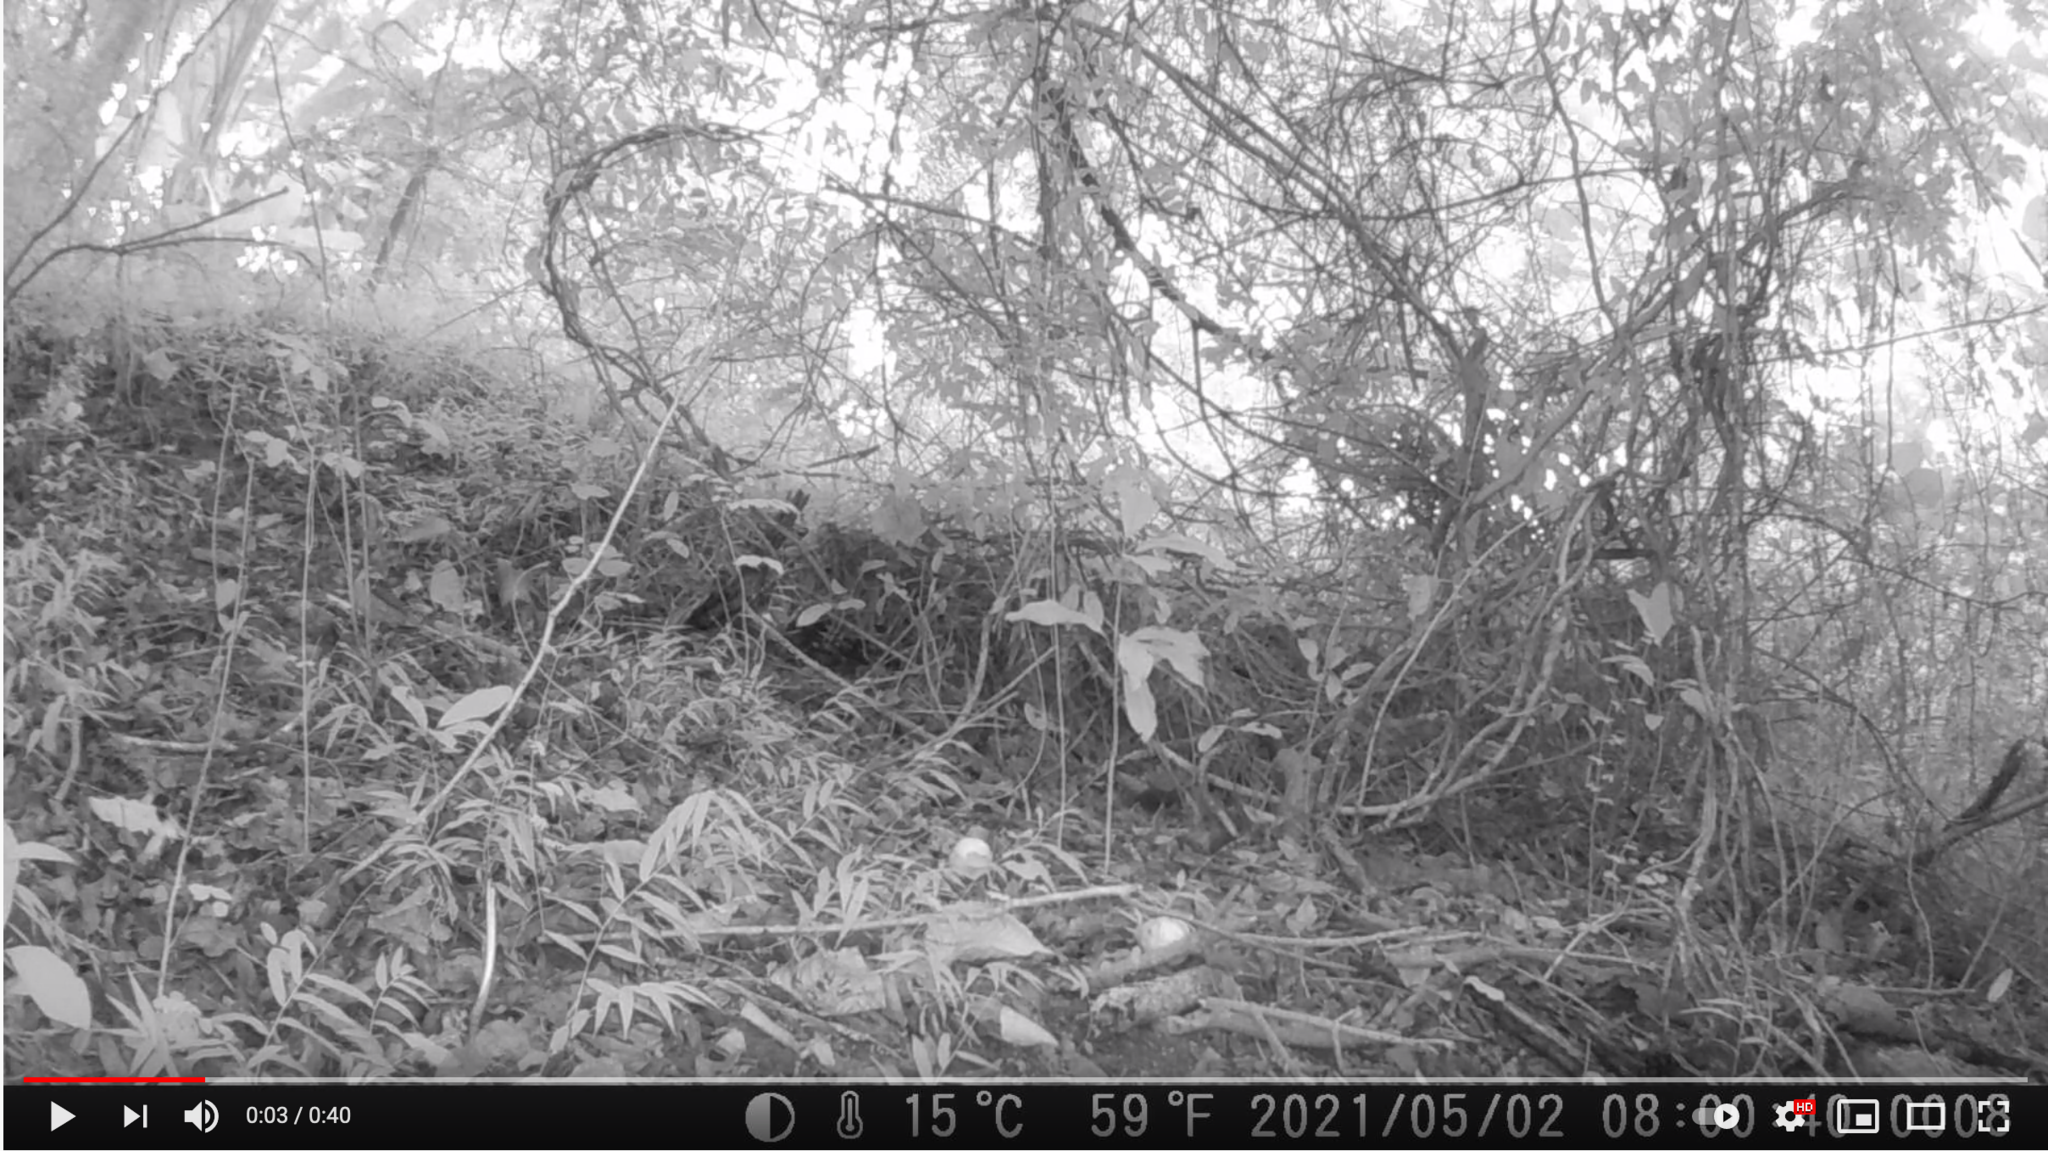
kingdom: Animalia
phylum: Chordata
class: Aves
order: Passeriformes
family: Muscicapidae
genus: Cossypha
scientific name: Cossypha natalensis
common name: Red-capped robin-chat
